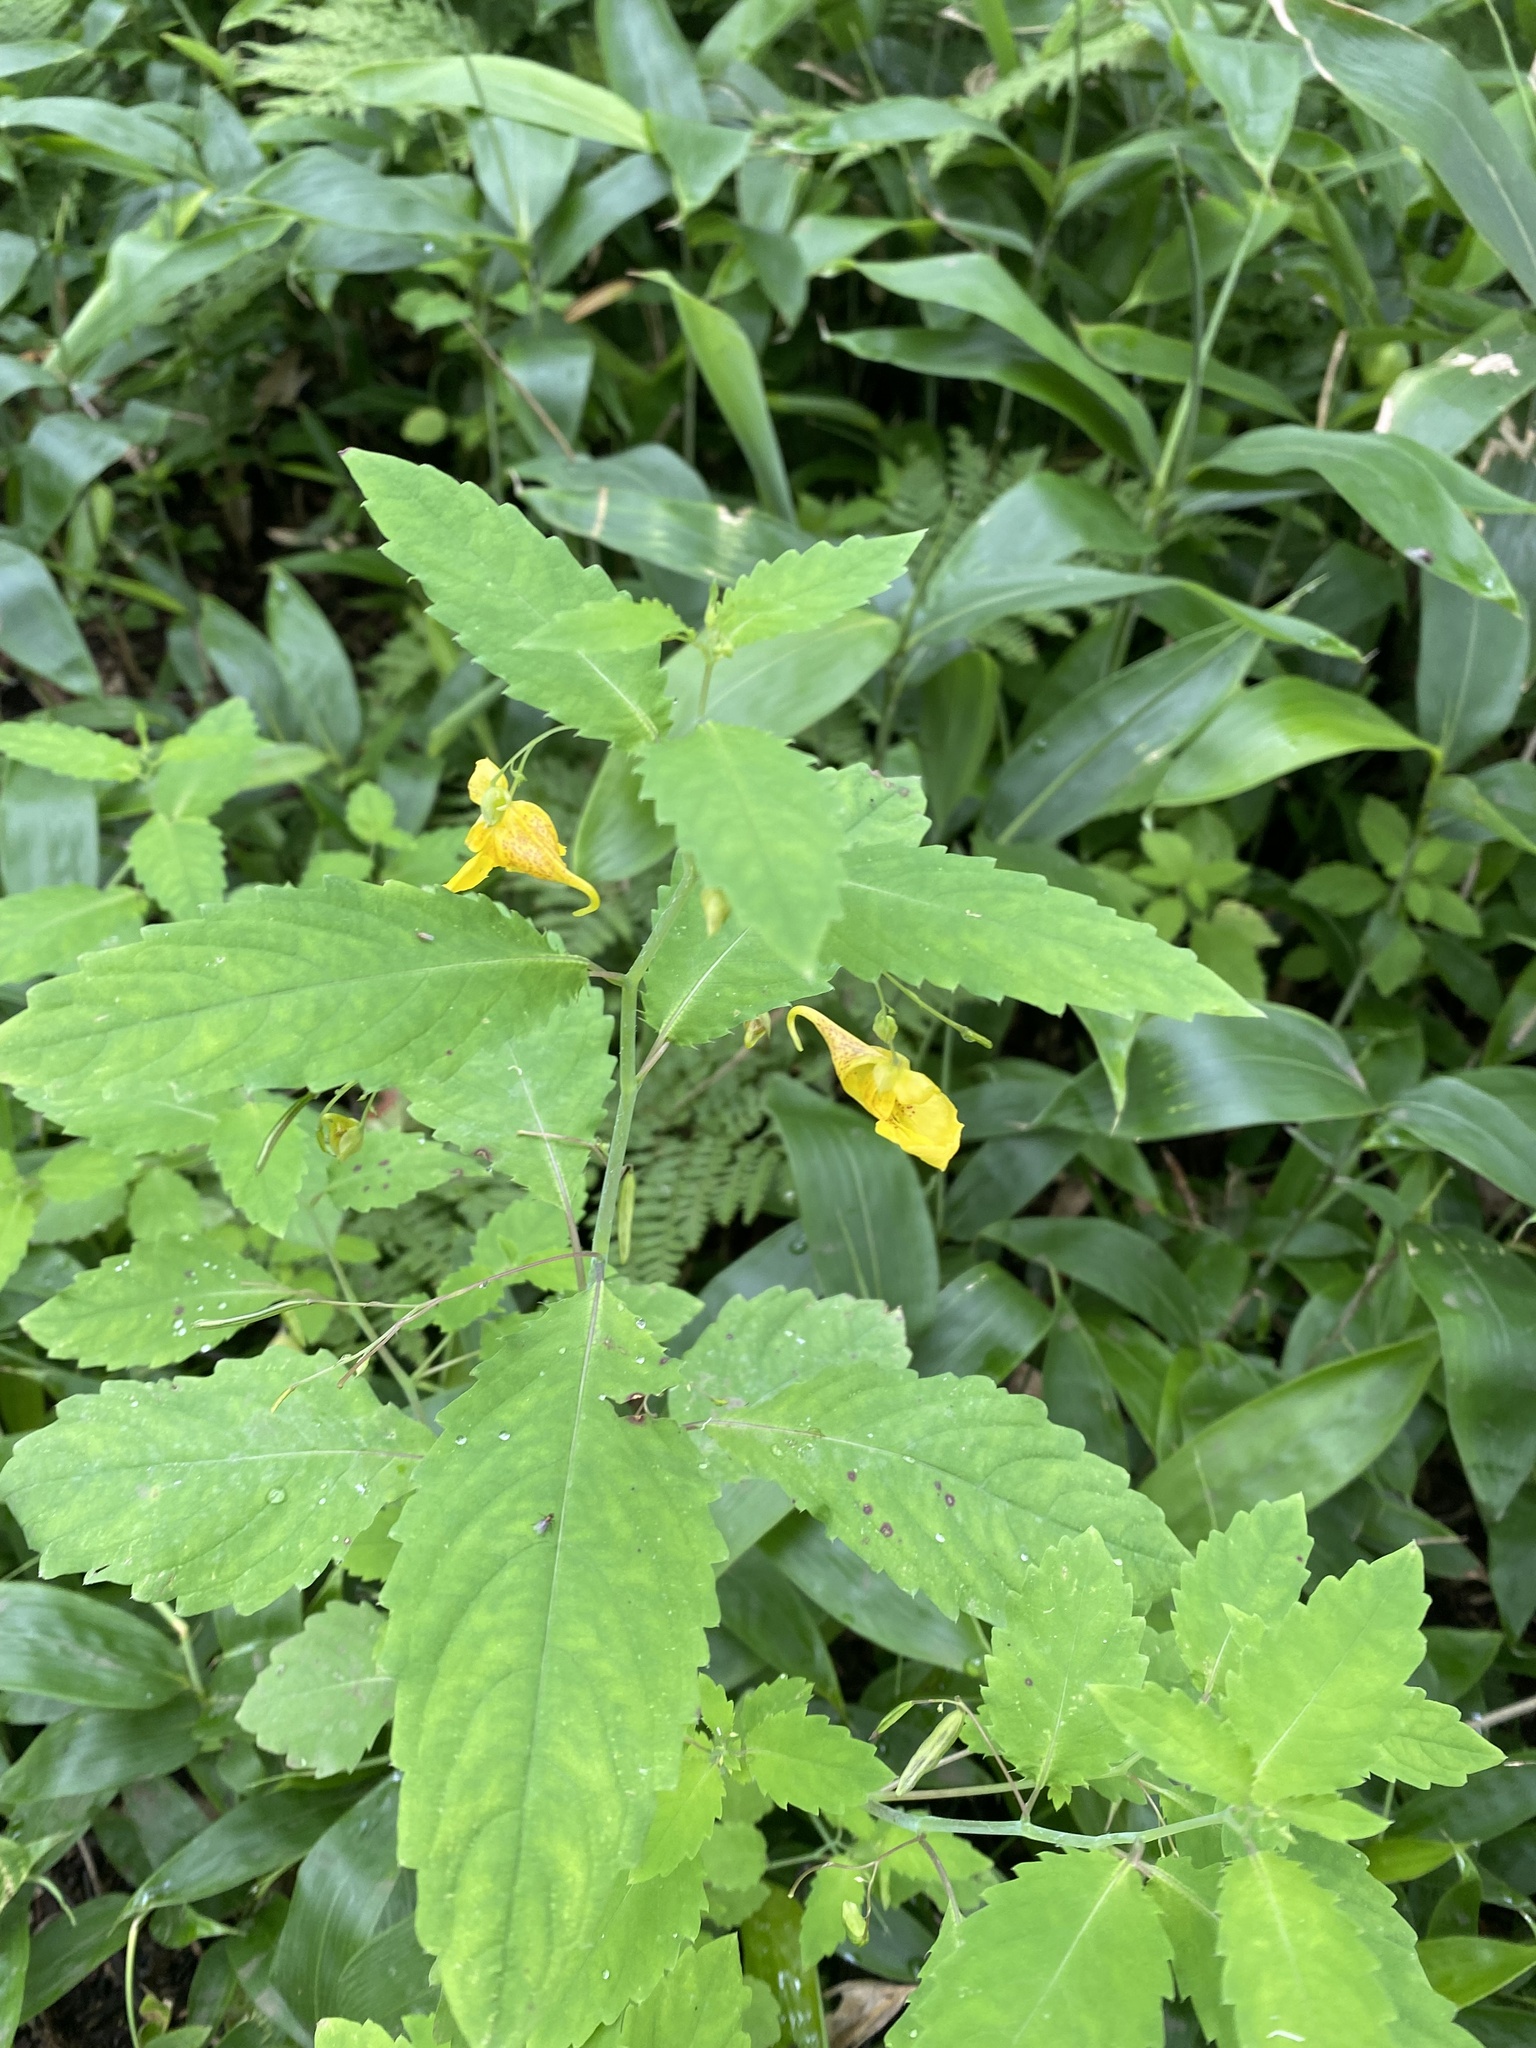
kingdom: Plantae
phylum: Tracheophyta
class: Magnoliopsida
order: Ericales
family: Balsaminaceae
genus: Impatiens
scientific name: Impatiens noli-tangere
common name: Touch-me-not balsam
